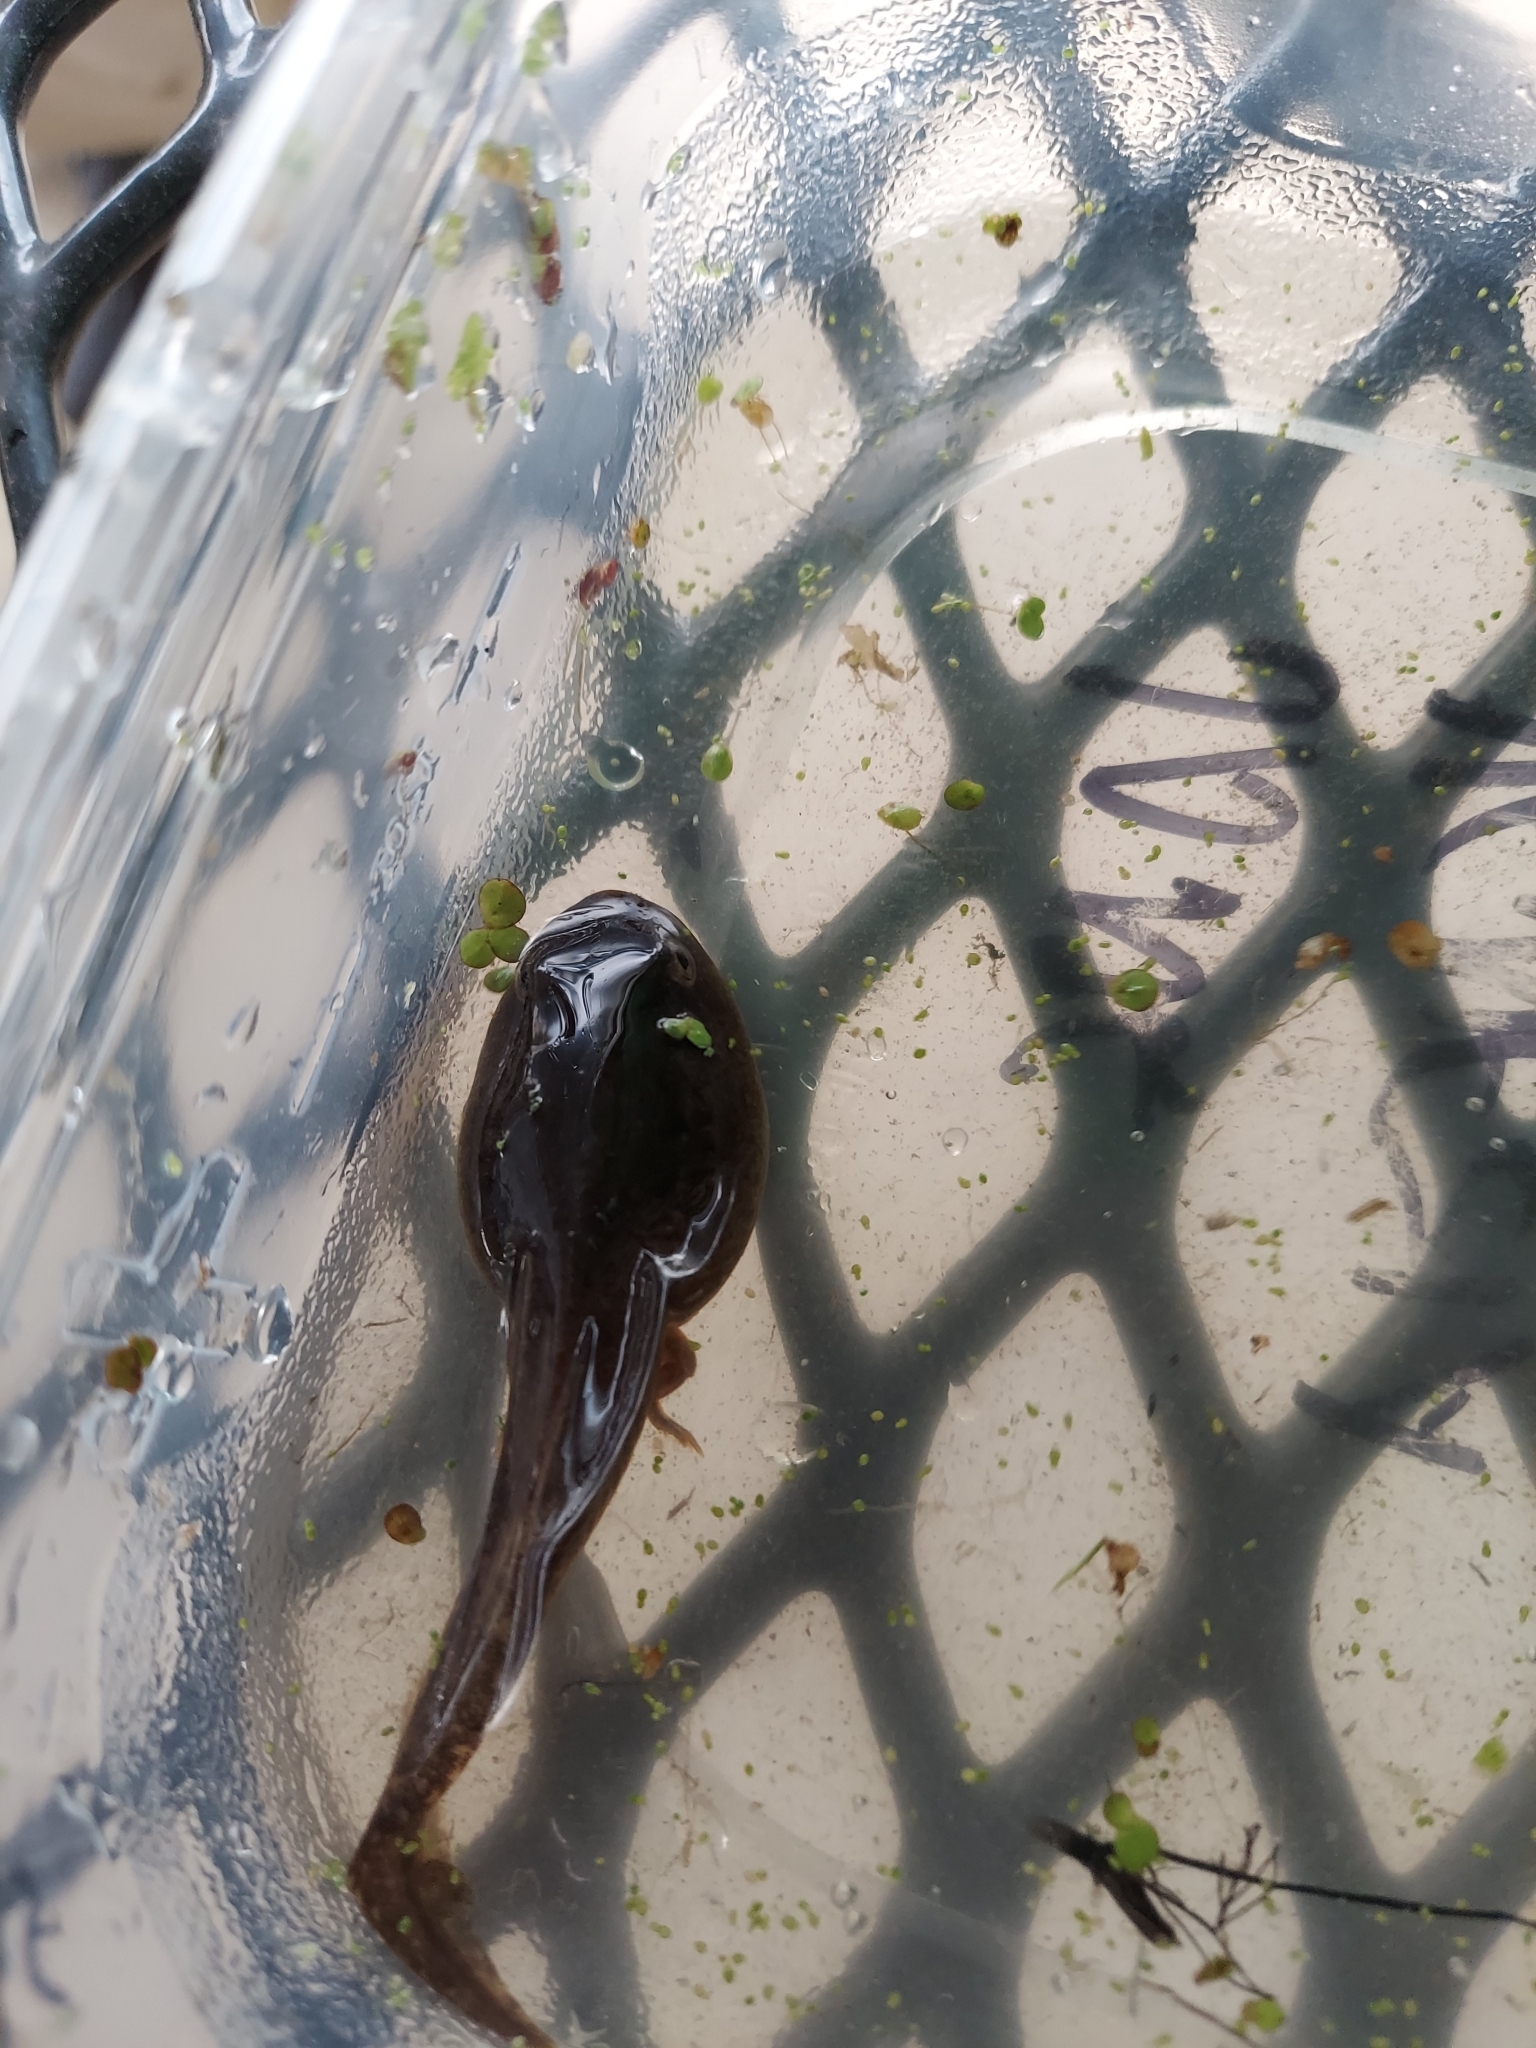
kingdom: Animalia
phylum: Chordata
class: Amphibia
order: Anura
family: Ranidae
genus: Lithobates
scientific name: Lithobates clamitans
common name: Green frog
